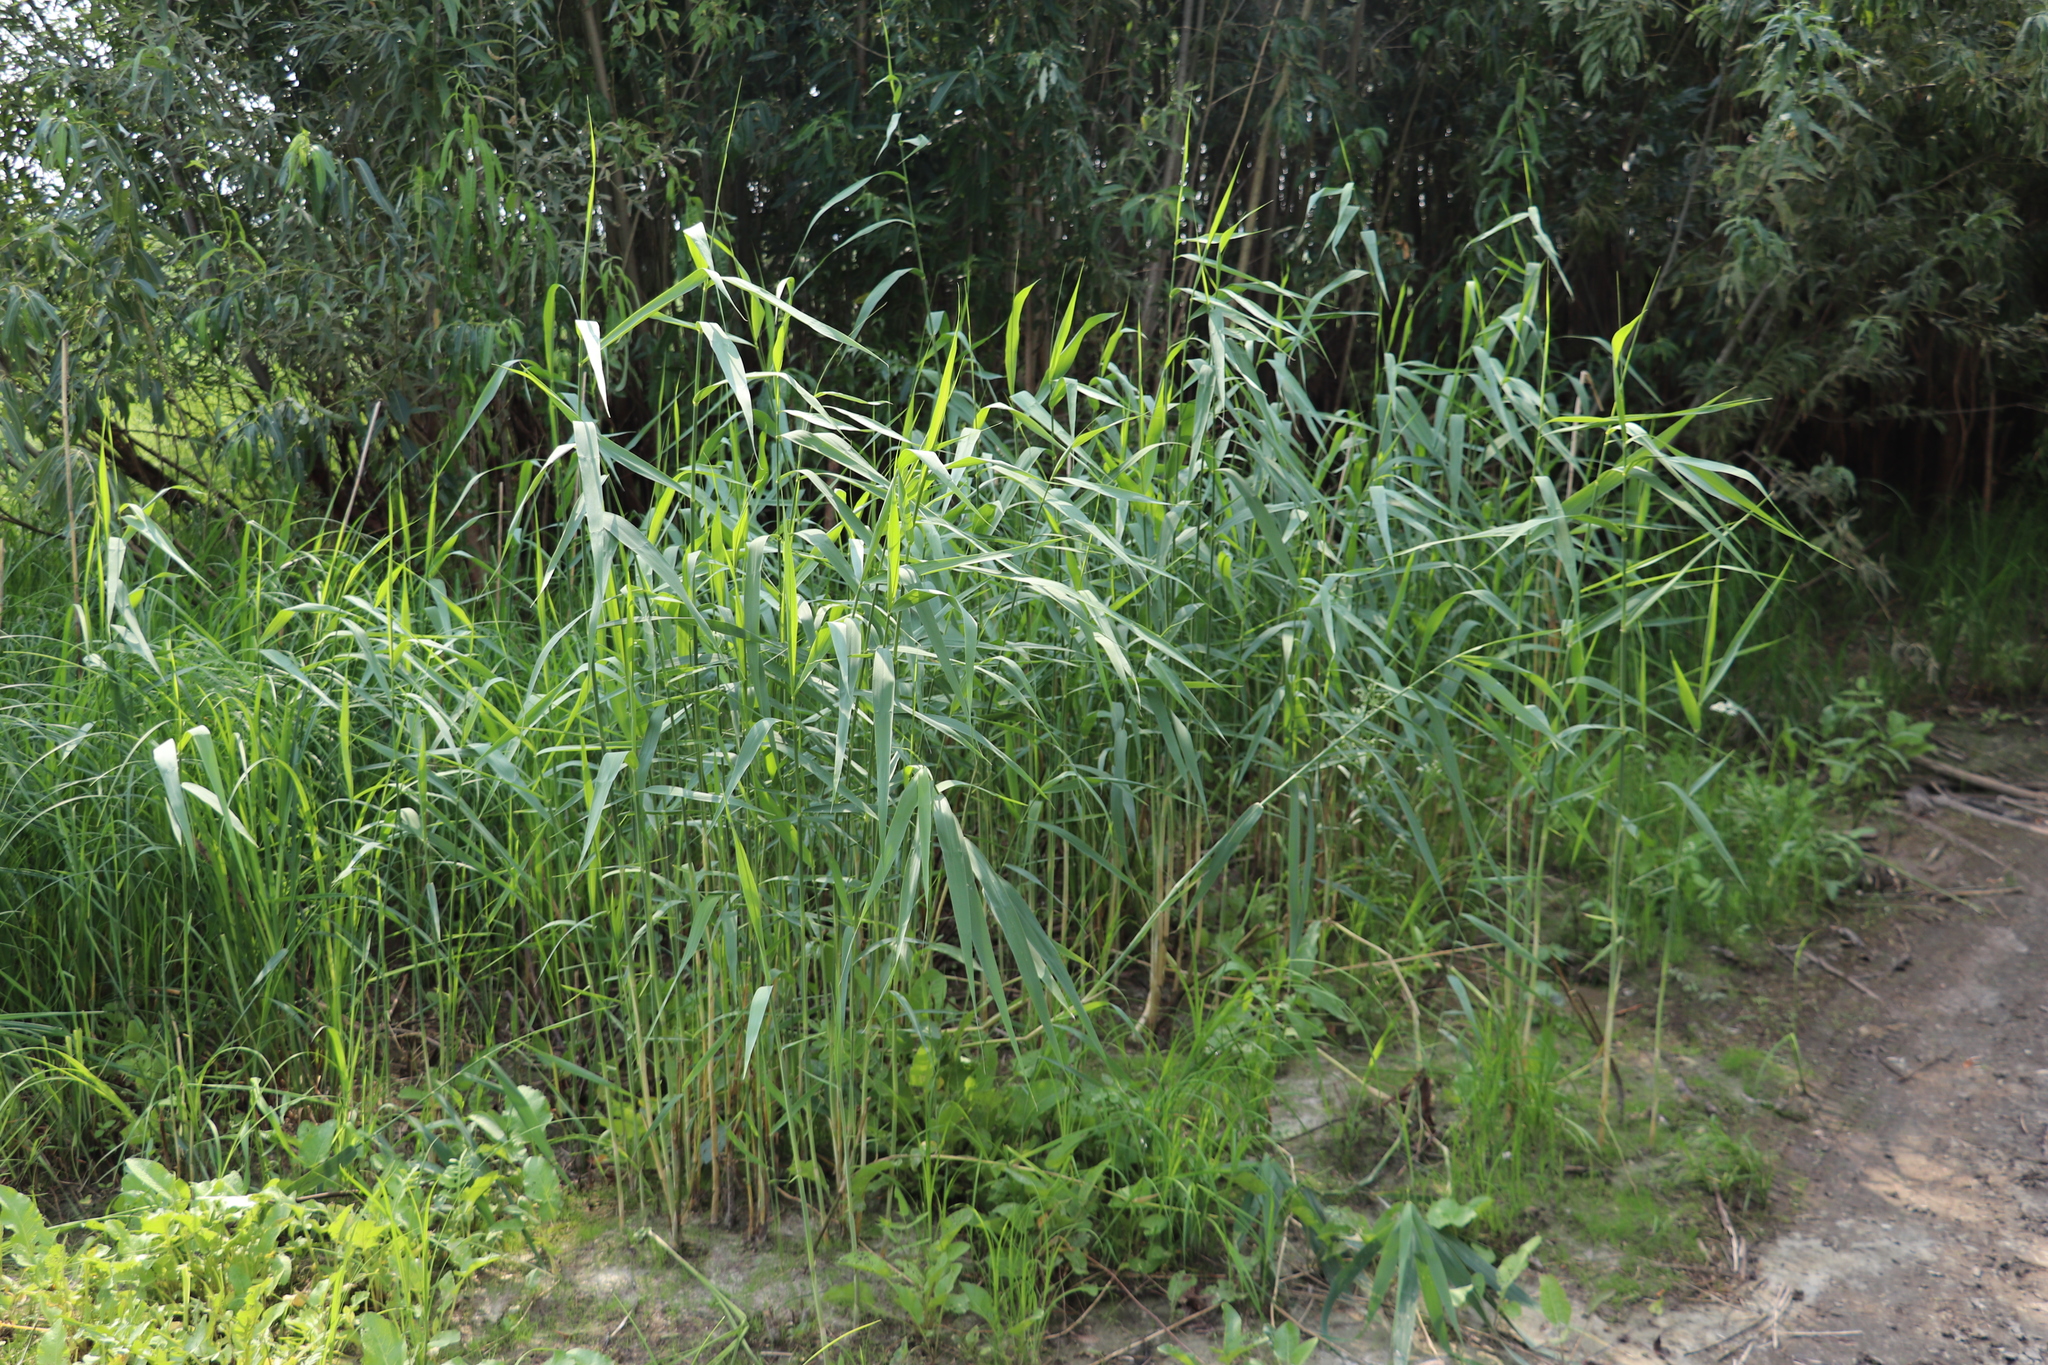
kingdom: Plantae
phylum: Tracheophyta
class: Liliopsida
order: Poales
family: Poaceae
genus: Phragmites
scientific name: Phragmites australis
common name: Common reed
